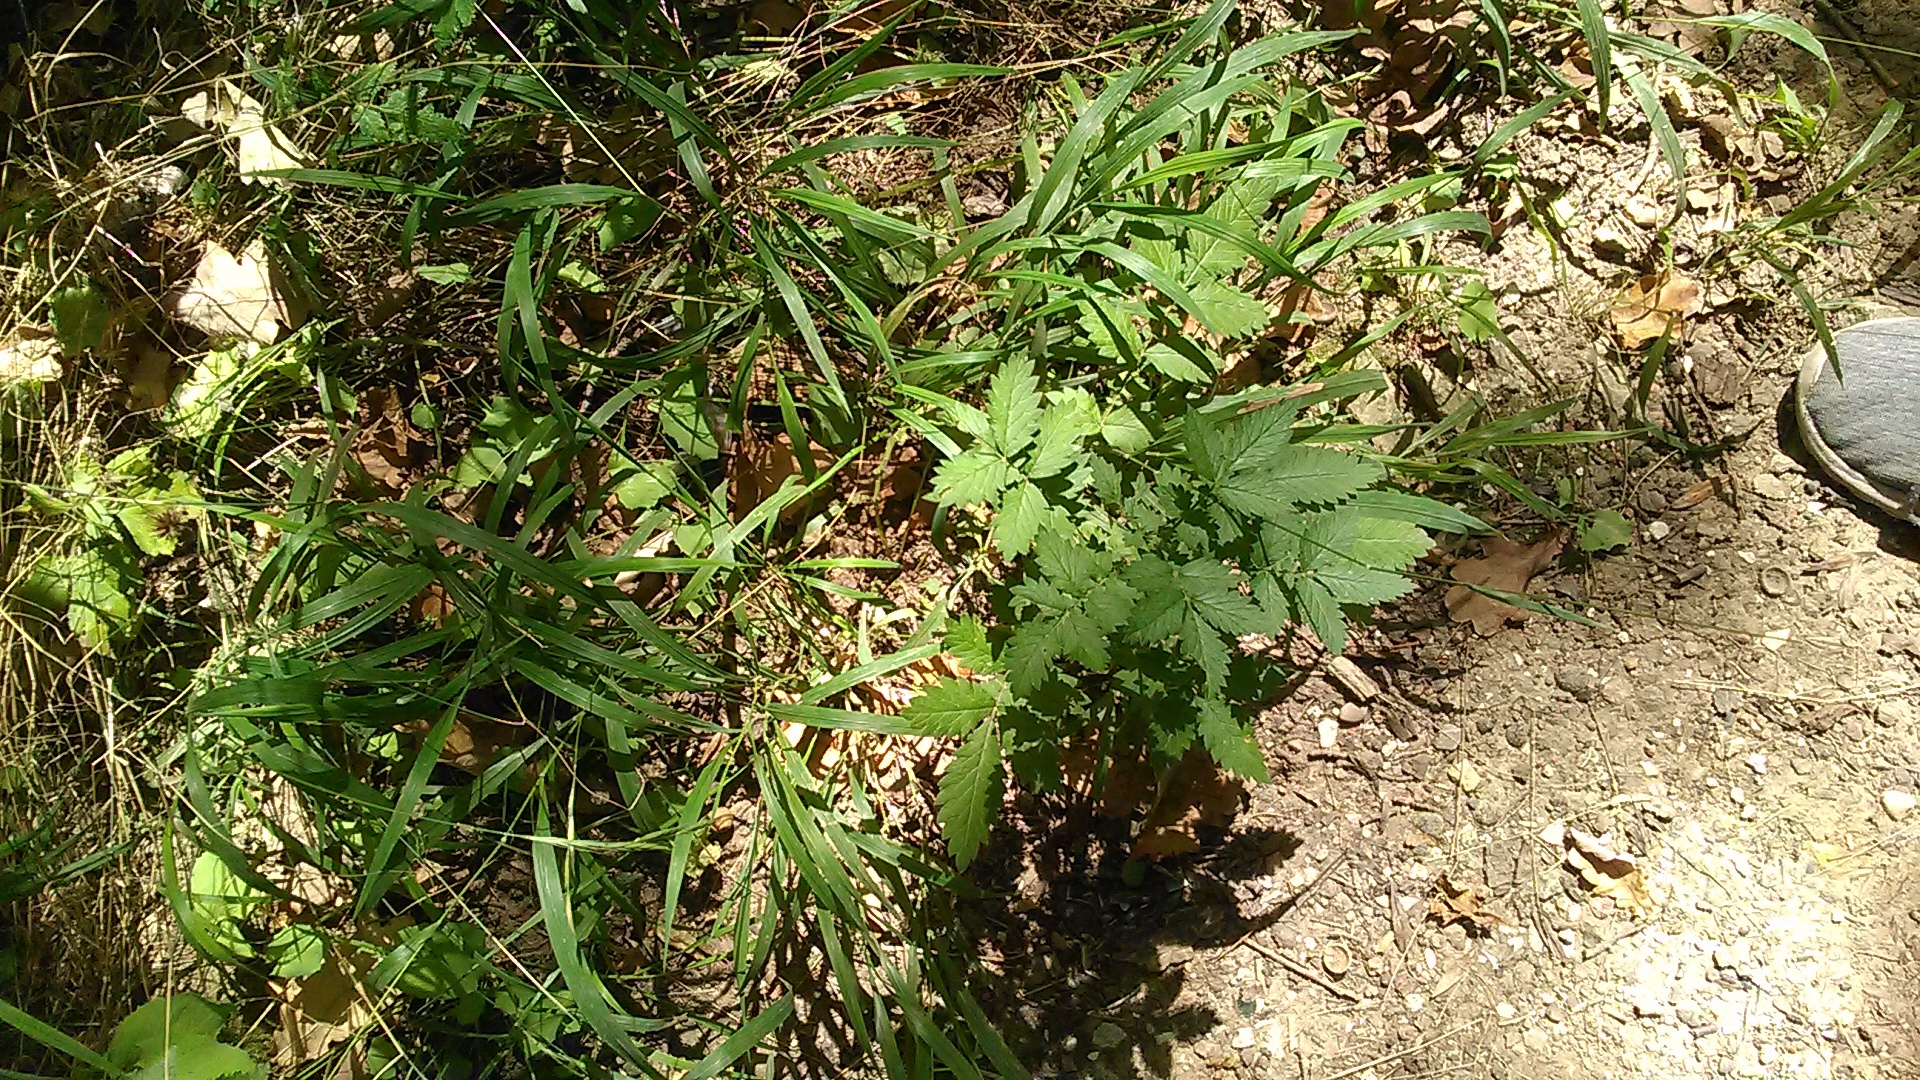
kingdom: Plantae
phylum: Tracheophyta
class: Magnoliopsida
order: Rosales
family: Rosaceae
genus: Agrimonia
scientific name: Agrimonia eupatoria
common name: Agrimony
